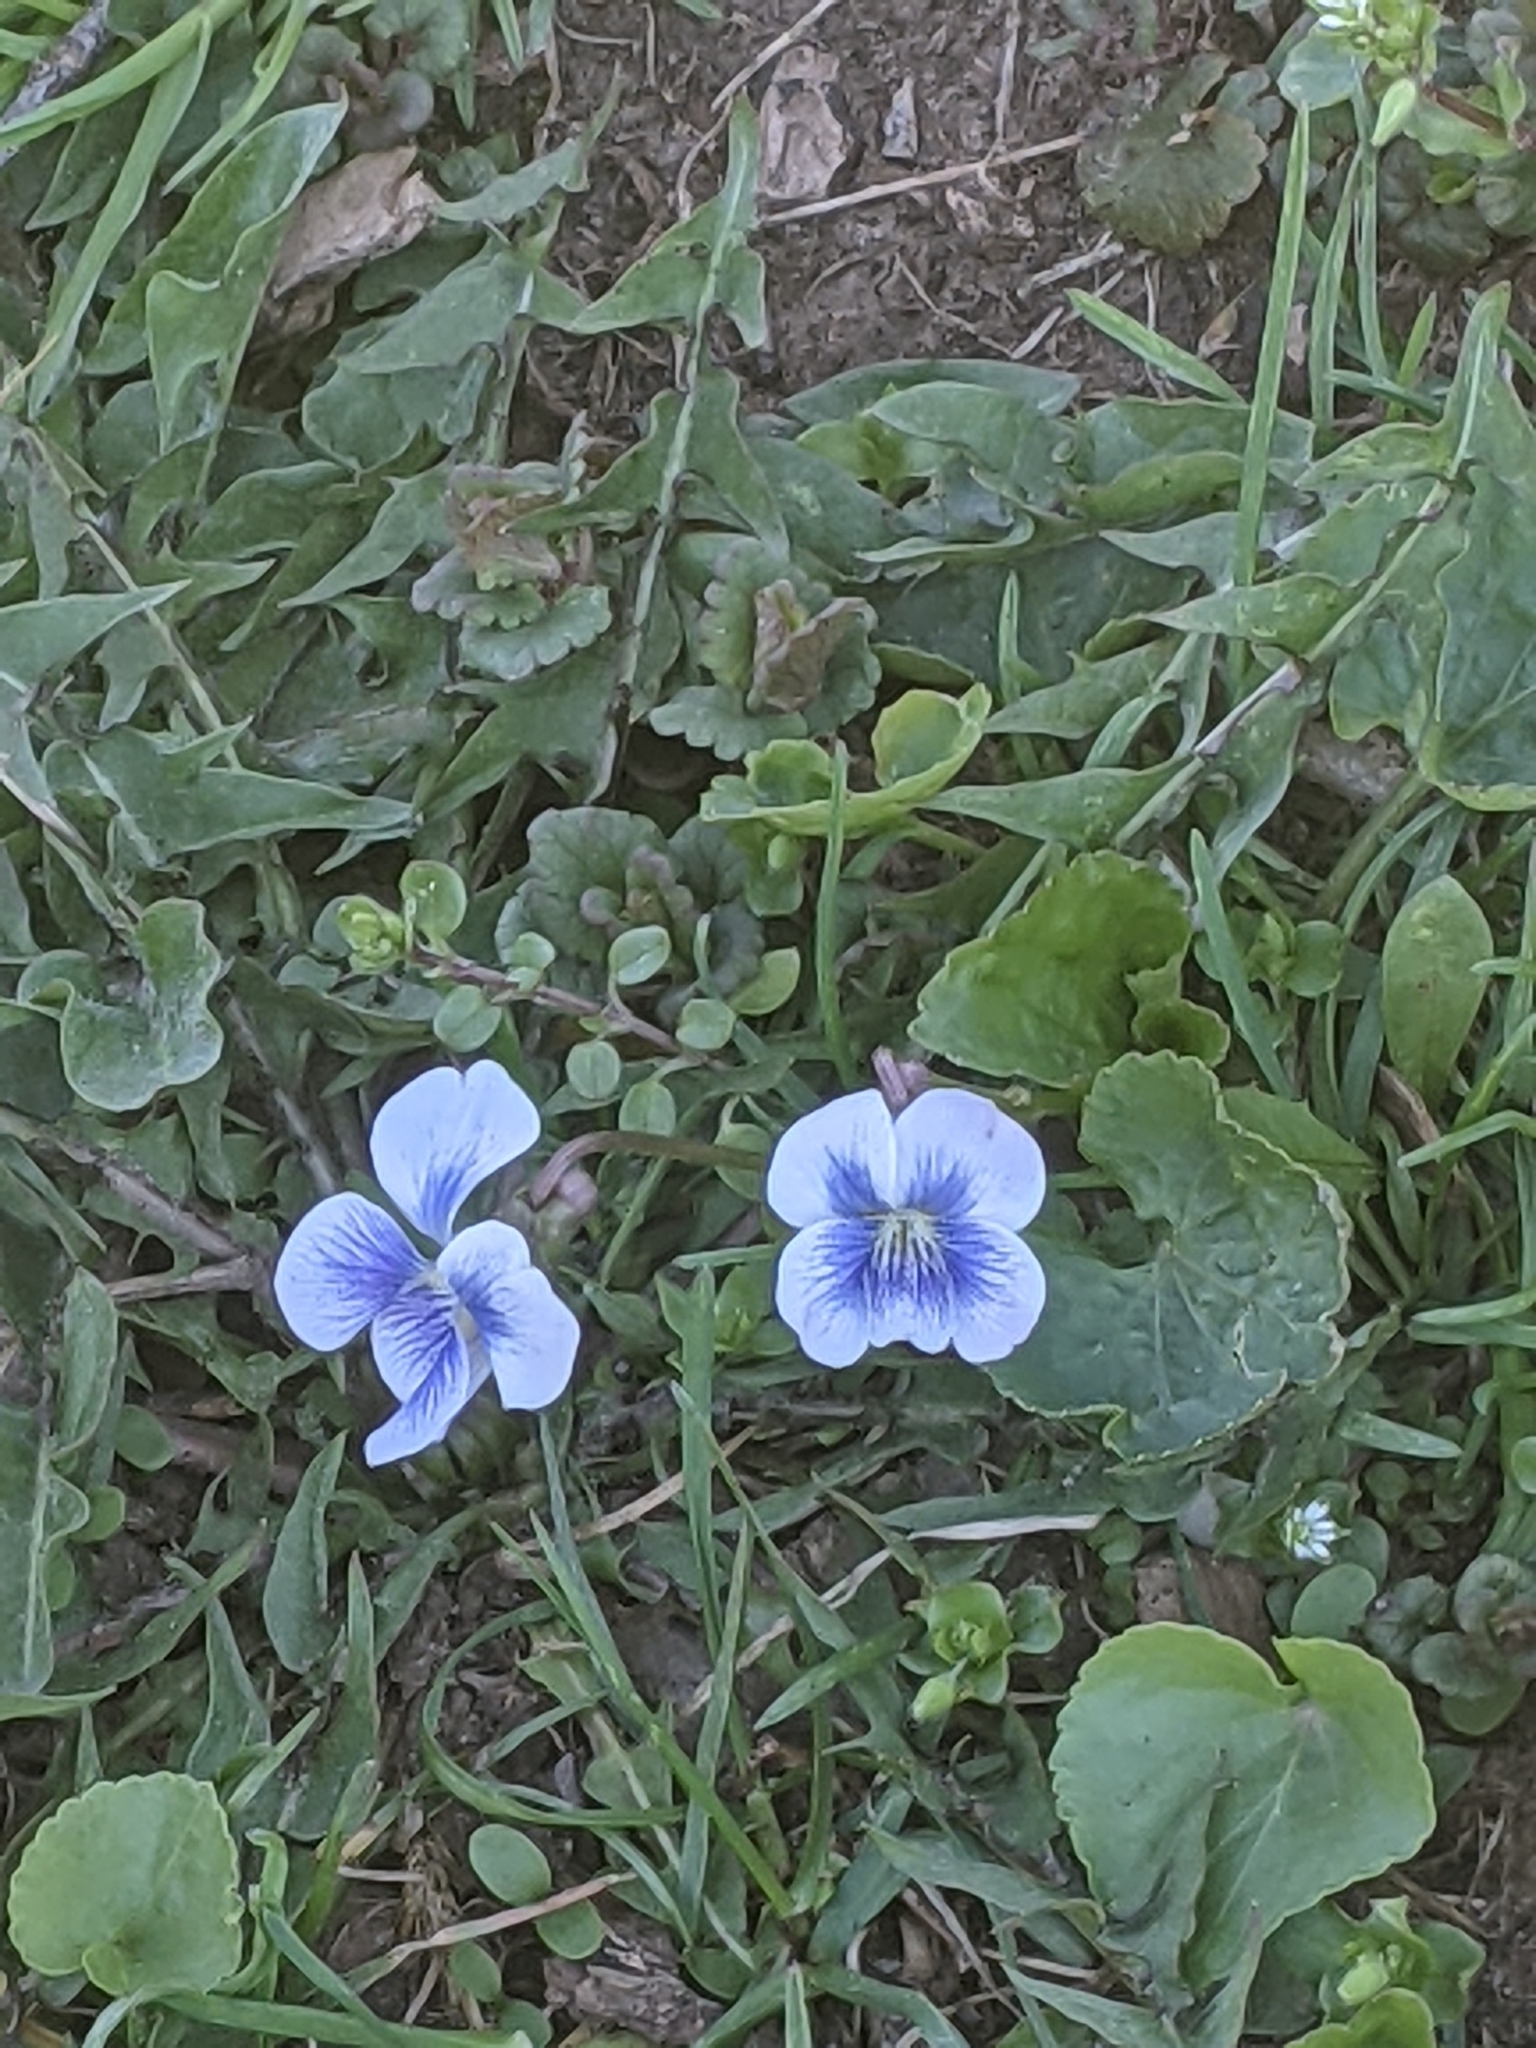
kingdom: Plantae
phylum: Tracheophyta
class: Magnoliopsida
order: Malpighiales
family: Violaceae
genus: Viola
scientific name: Viola sororia
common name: Dooryard violet
